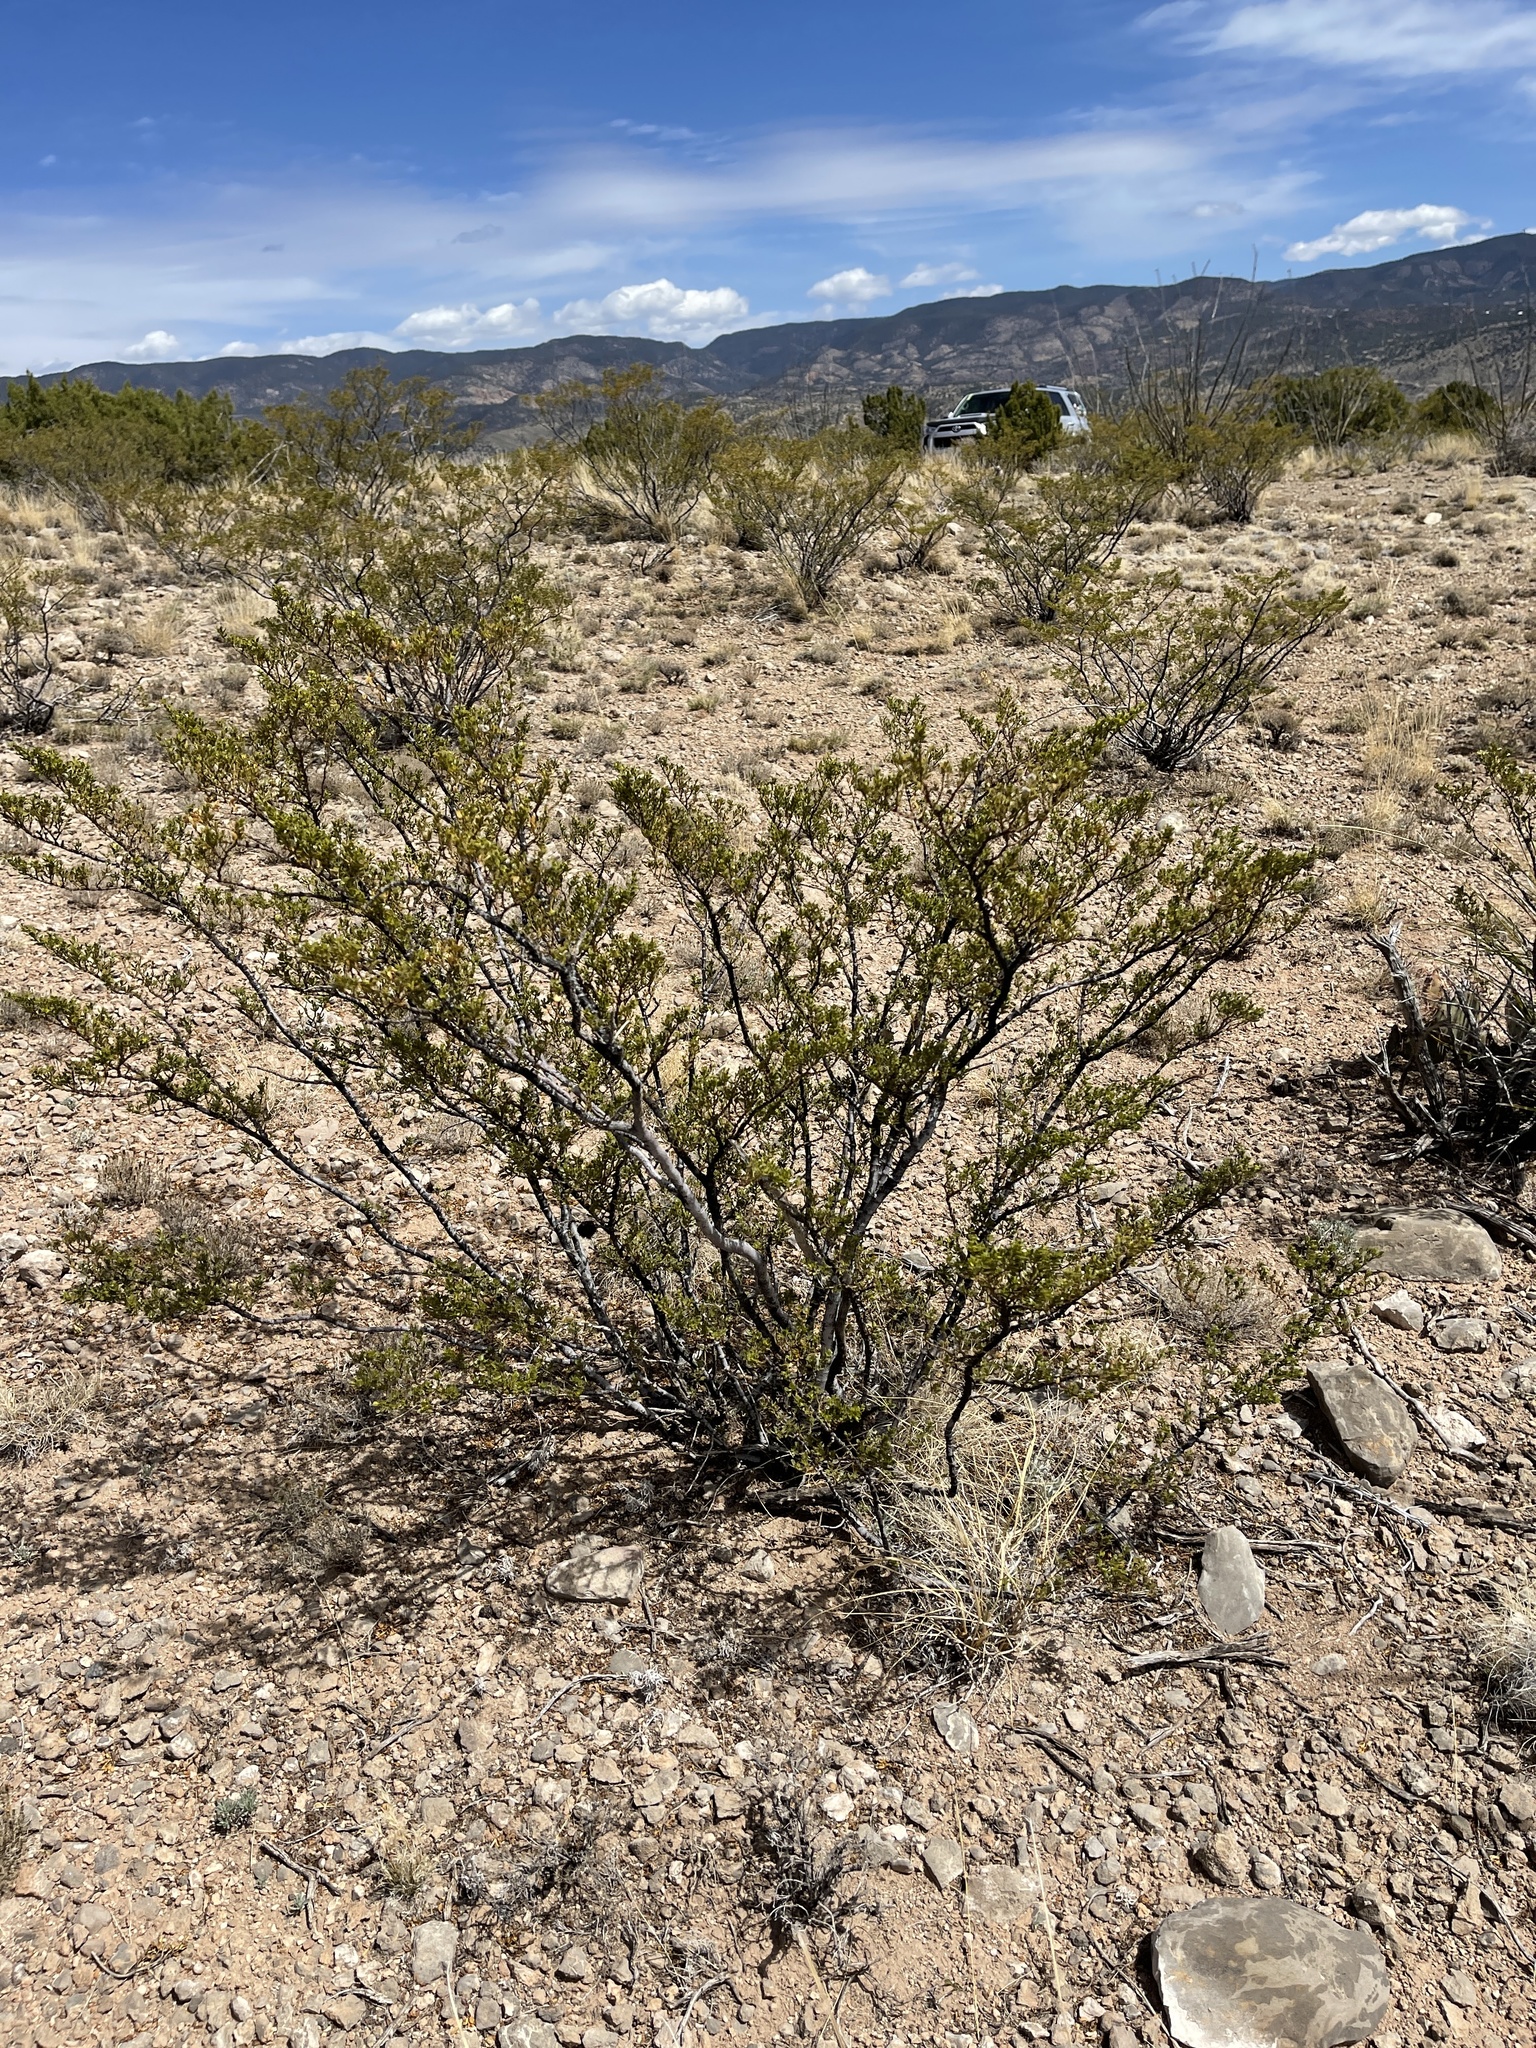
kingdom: Plantae
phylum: Tracheophyta
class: Magnoliopsida
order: Zygophyllales
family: Zygophyllaceae
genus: Larrea
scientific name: Larrea tridentata
